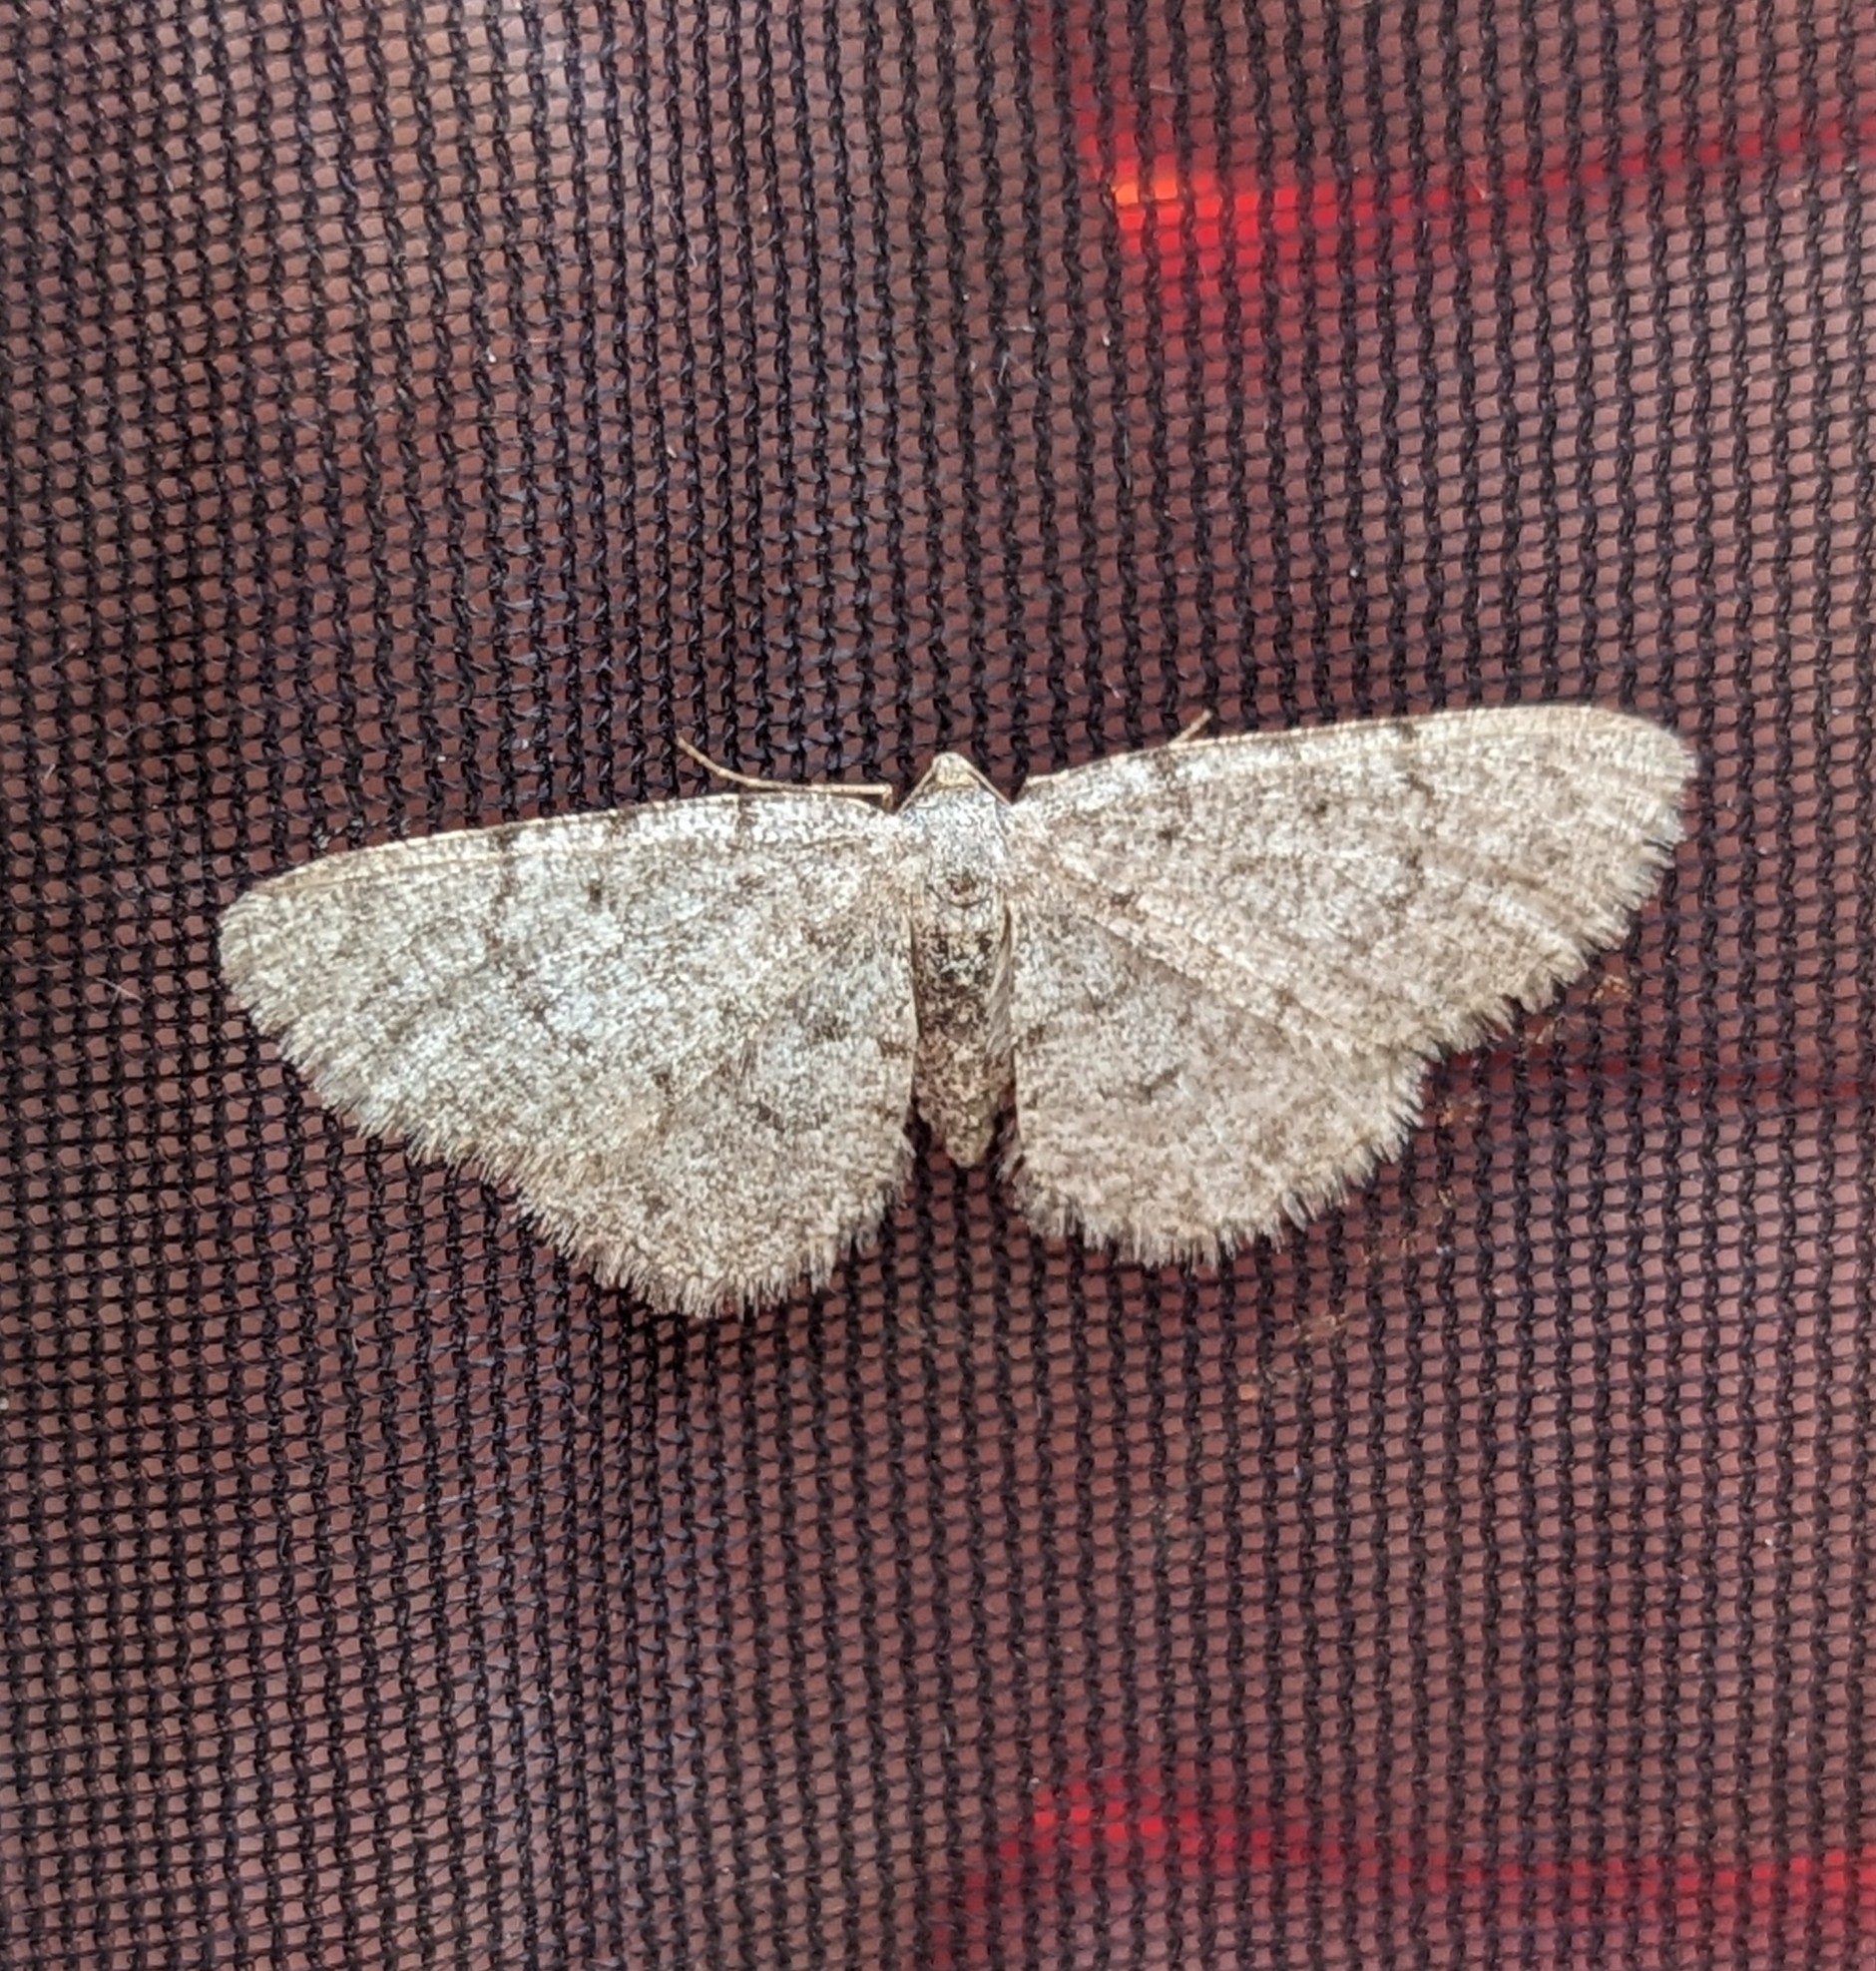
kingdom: Animalia
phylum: Arthropoda
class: Insecta
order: Lepidoptera
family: Geometridae
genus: Aethalura
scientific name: Aethalura intertexta
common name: Four-barred gray
